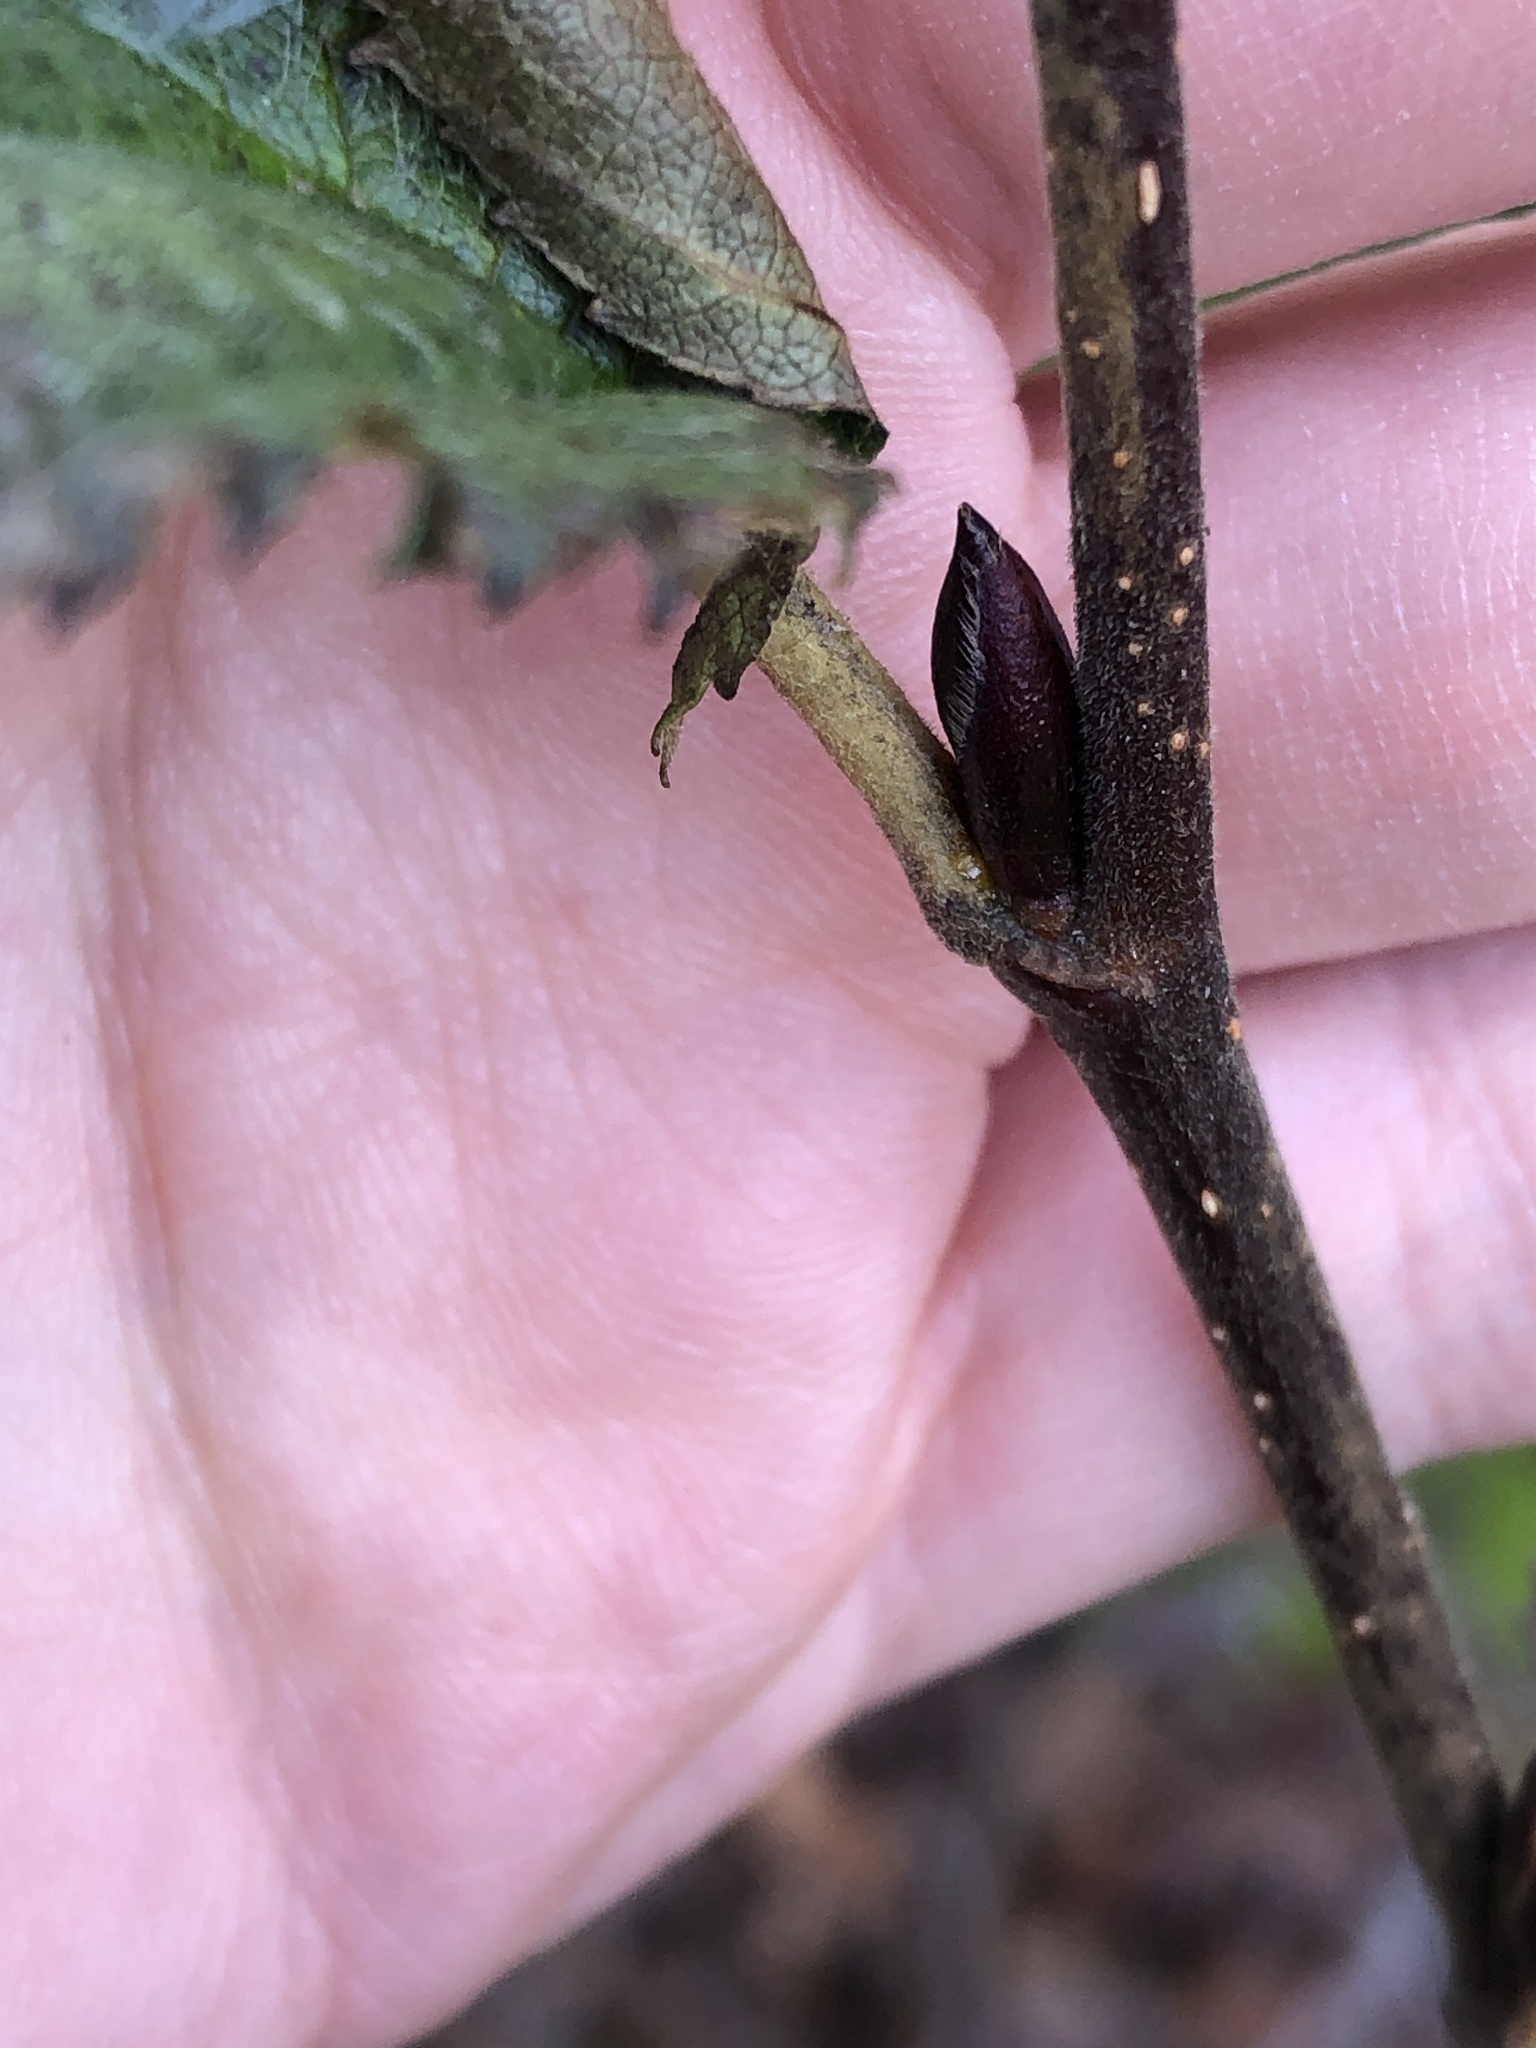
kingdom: Plantae
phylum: Tracheophyta
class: Magnoliopsida
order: Fagales
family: Betulaceae
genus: Alnus
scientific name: Alnus alnobetula
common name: Green alder
